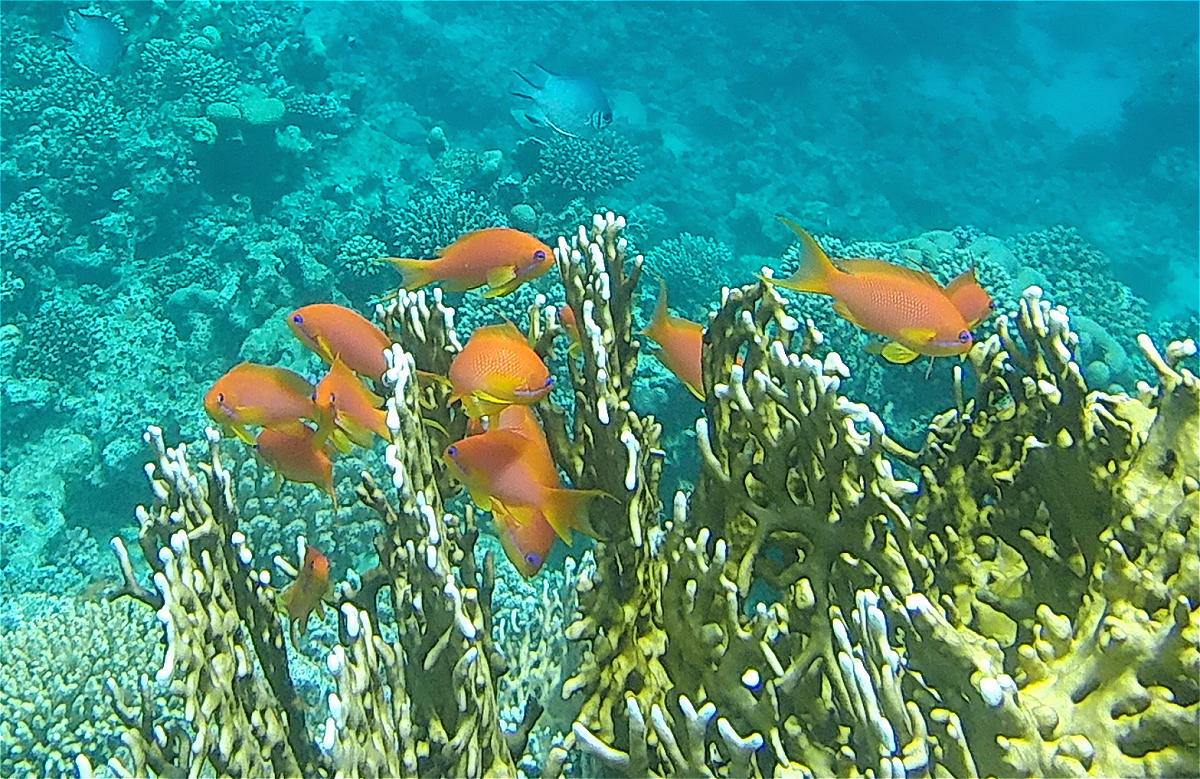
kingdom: Animalia
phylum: Chordata
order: Perciformes
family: Serranidae
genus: Pseudanthias
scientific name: Pseudanthias squamipinnis
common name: Scalefin anthias
